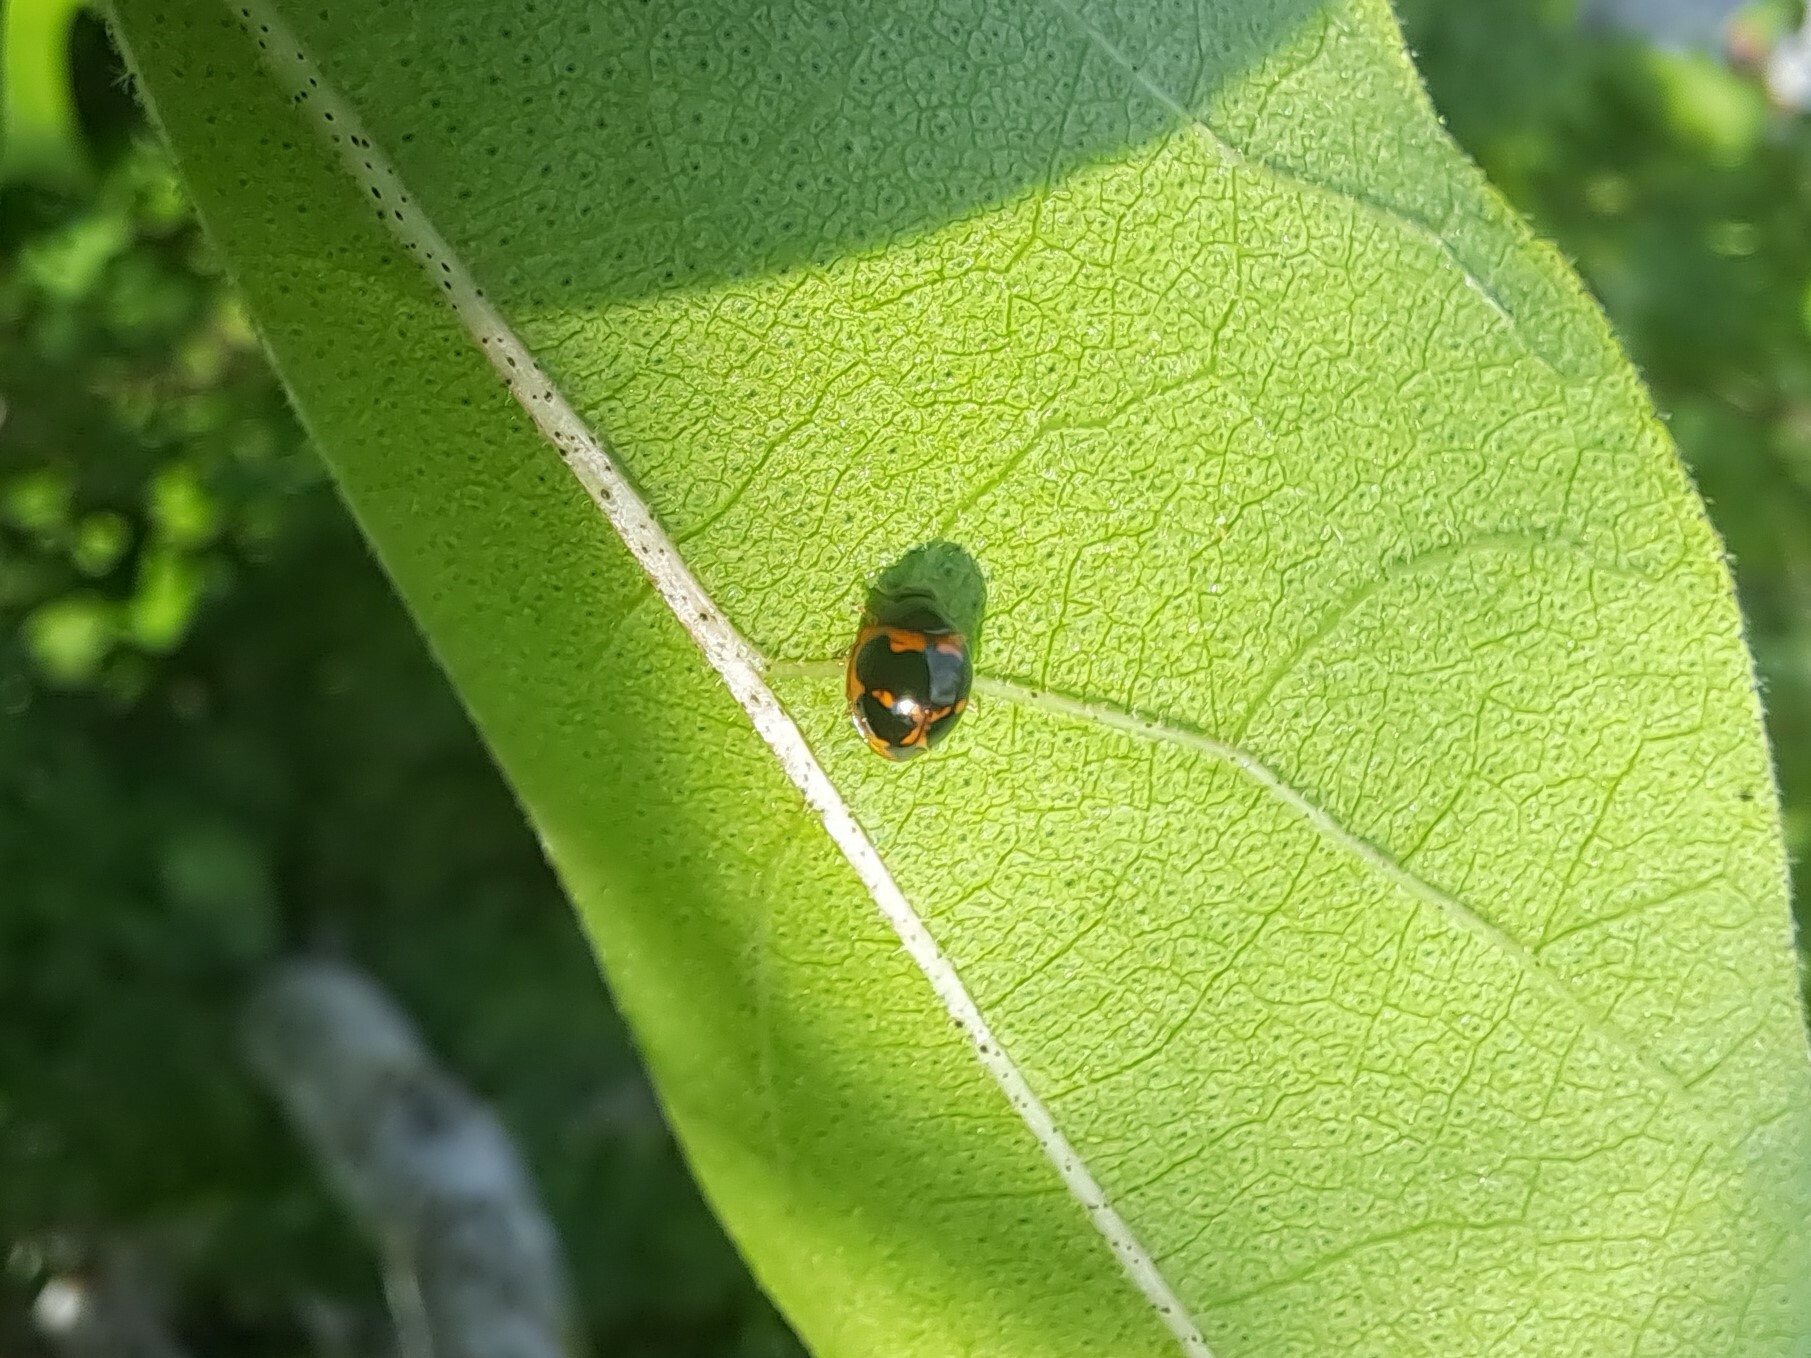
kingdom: Animalia
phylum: Arthropoda
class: Insecta
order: Coleoptera
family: Coccinellidae
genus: Zagreus
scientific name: Zagreus
